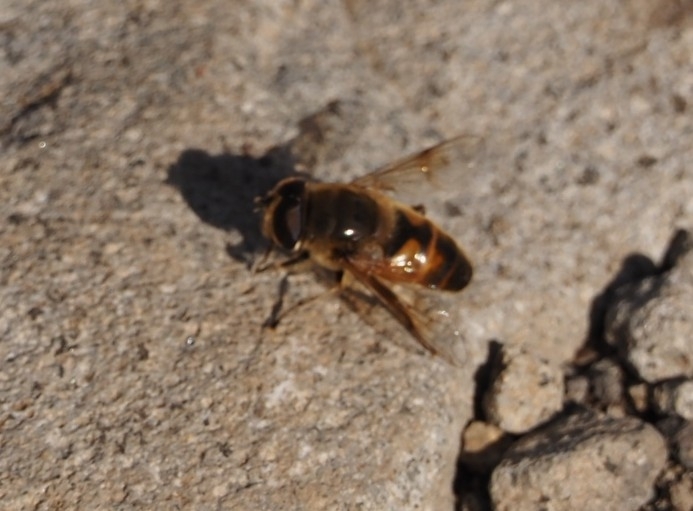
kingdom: Animalia
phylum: Arthropoda
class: Insecta
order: Diptera
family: Syrphidae
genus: Eristalis
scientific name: Eristalis tenax
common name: Drone fly
